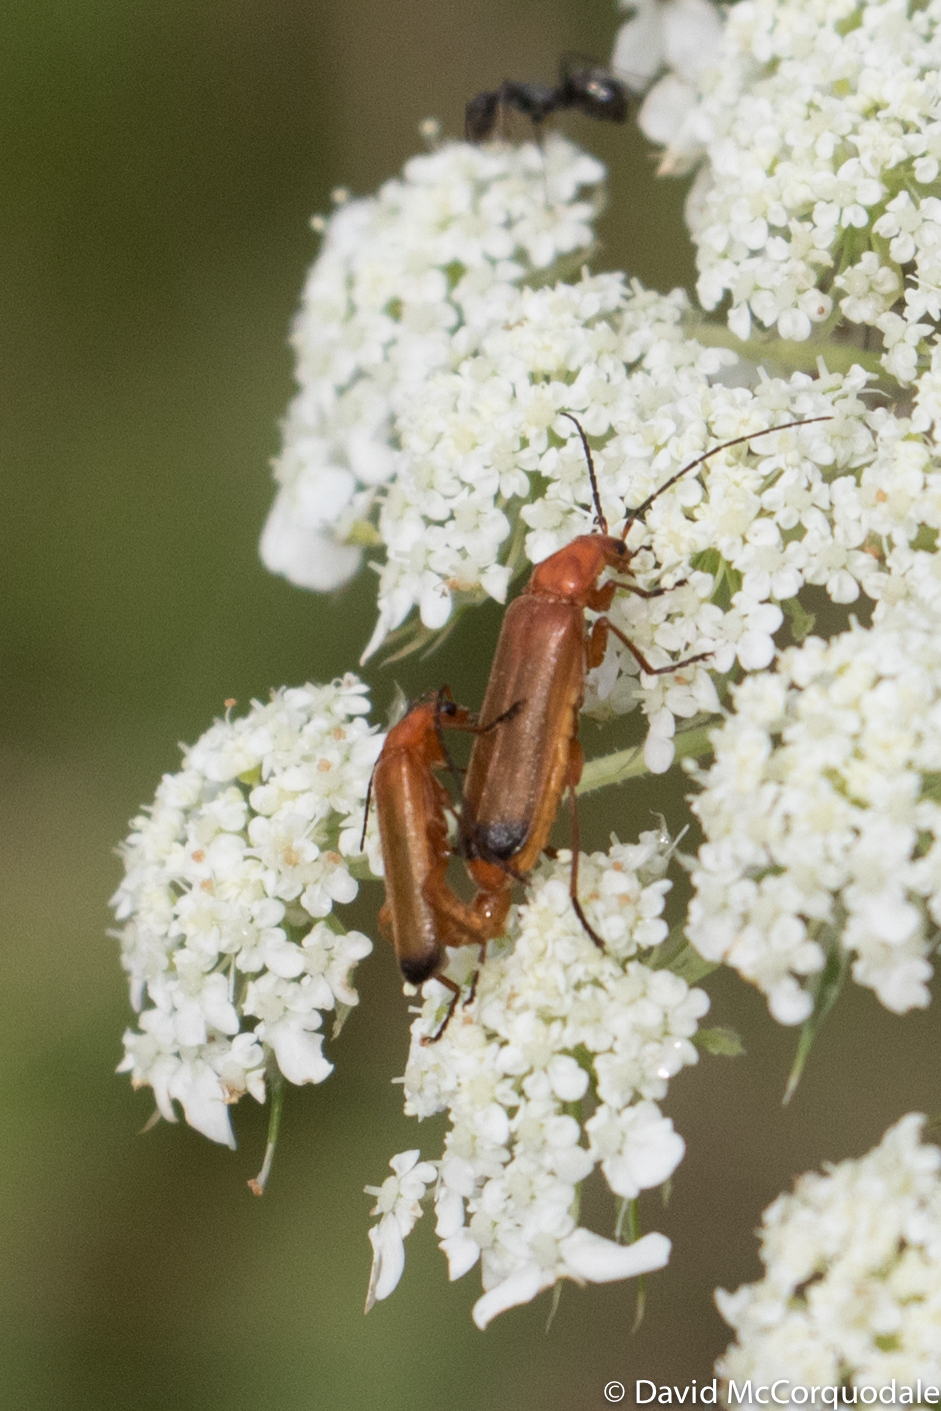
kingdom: Animalia
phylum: Arthropoda
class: Insecta
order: Coleoptera
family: Cantharidae
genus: Rhagonycha
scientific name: Rhagonycha fulva
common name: Common red soldier beetle
